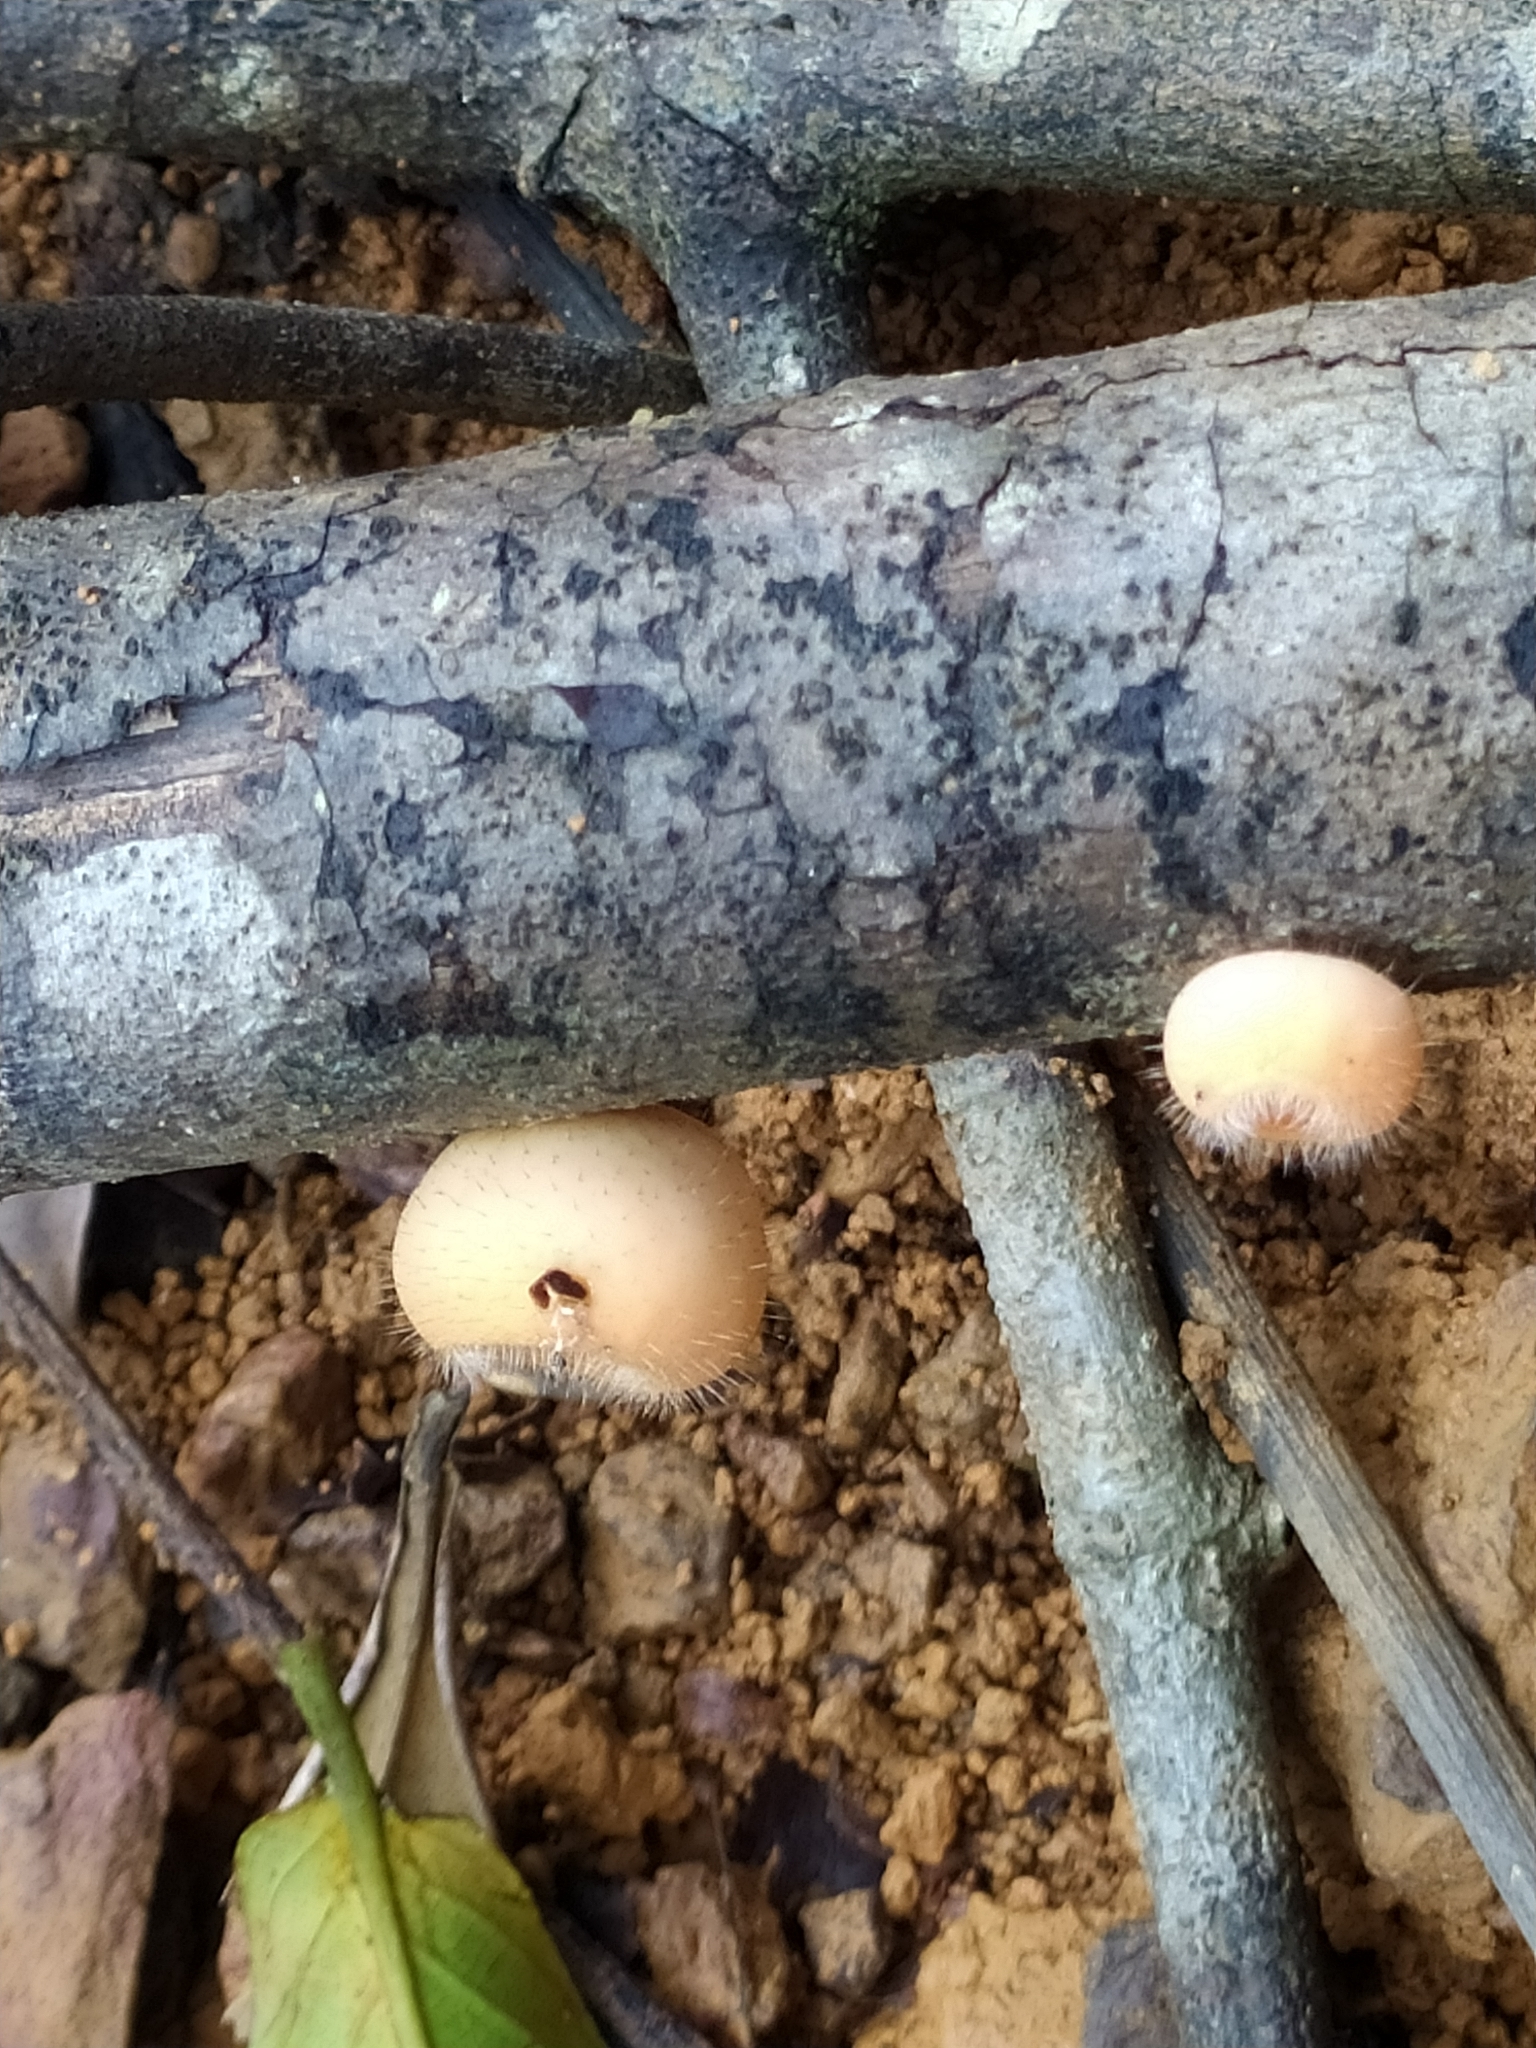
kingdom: Fungi
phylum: Ascomycota
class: Pezizomycetes
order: Pezizales
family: Sarcoscyphaceae
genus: Cookeina
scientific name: Cookeina tricholoma
